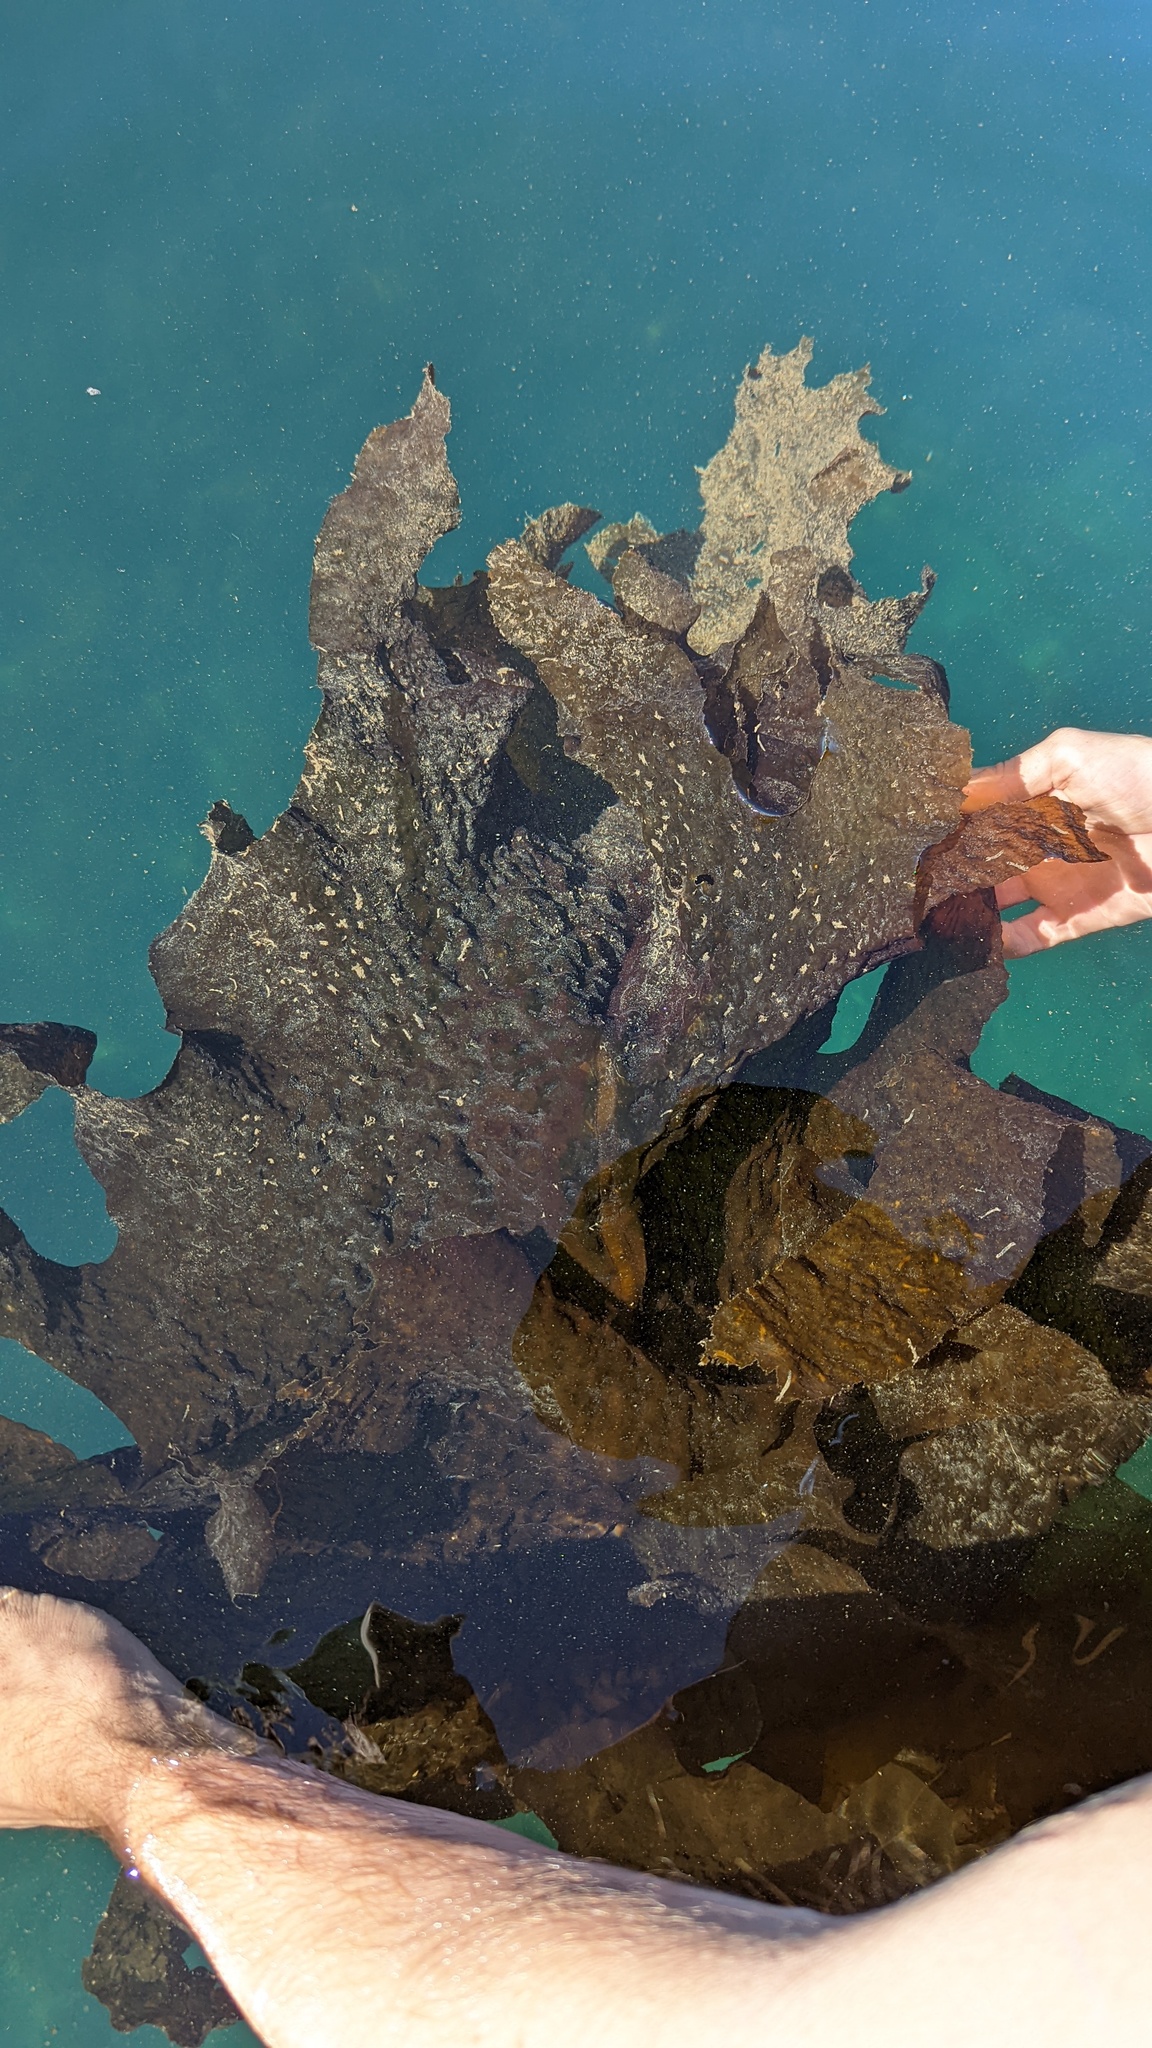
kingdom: Chromista
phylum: Ochrophyta
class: Phaeophyceae
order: Laminariales
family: Alariaceae
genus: Undaria
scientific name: Undaria pinnatifida
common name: Asian kelp
